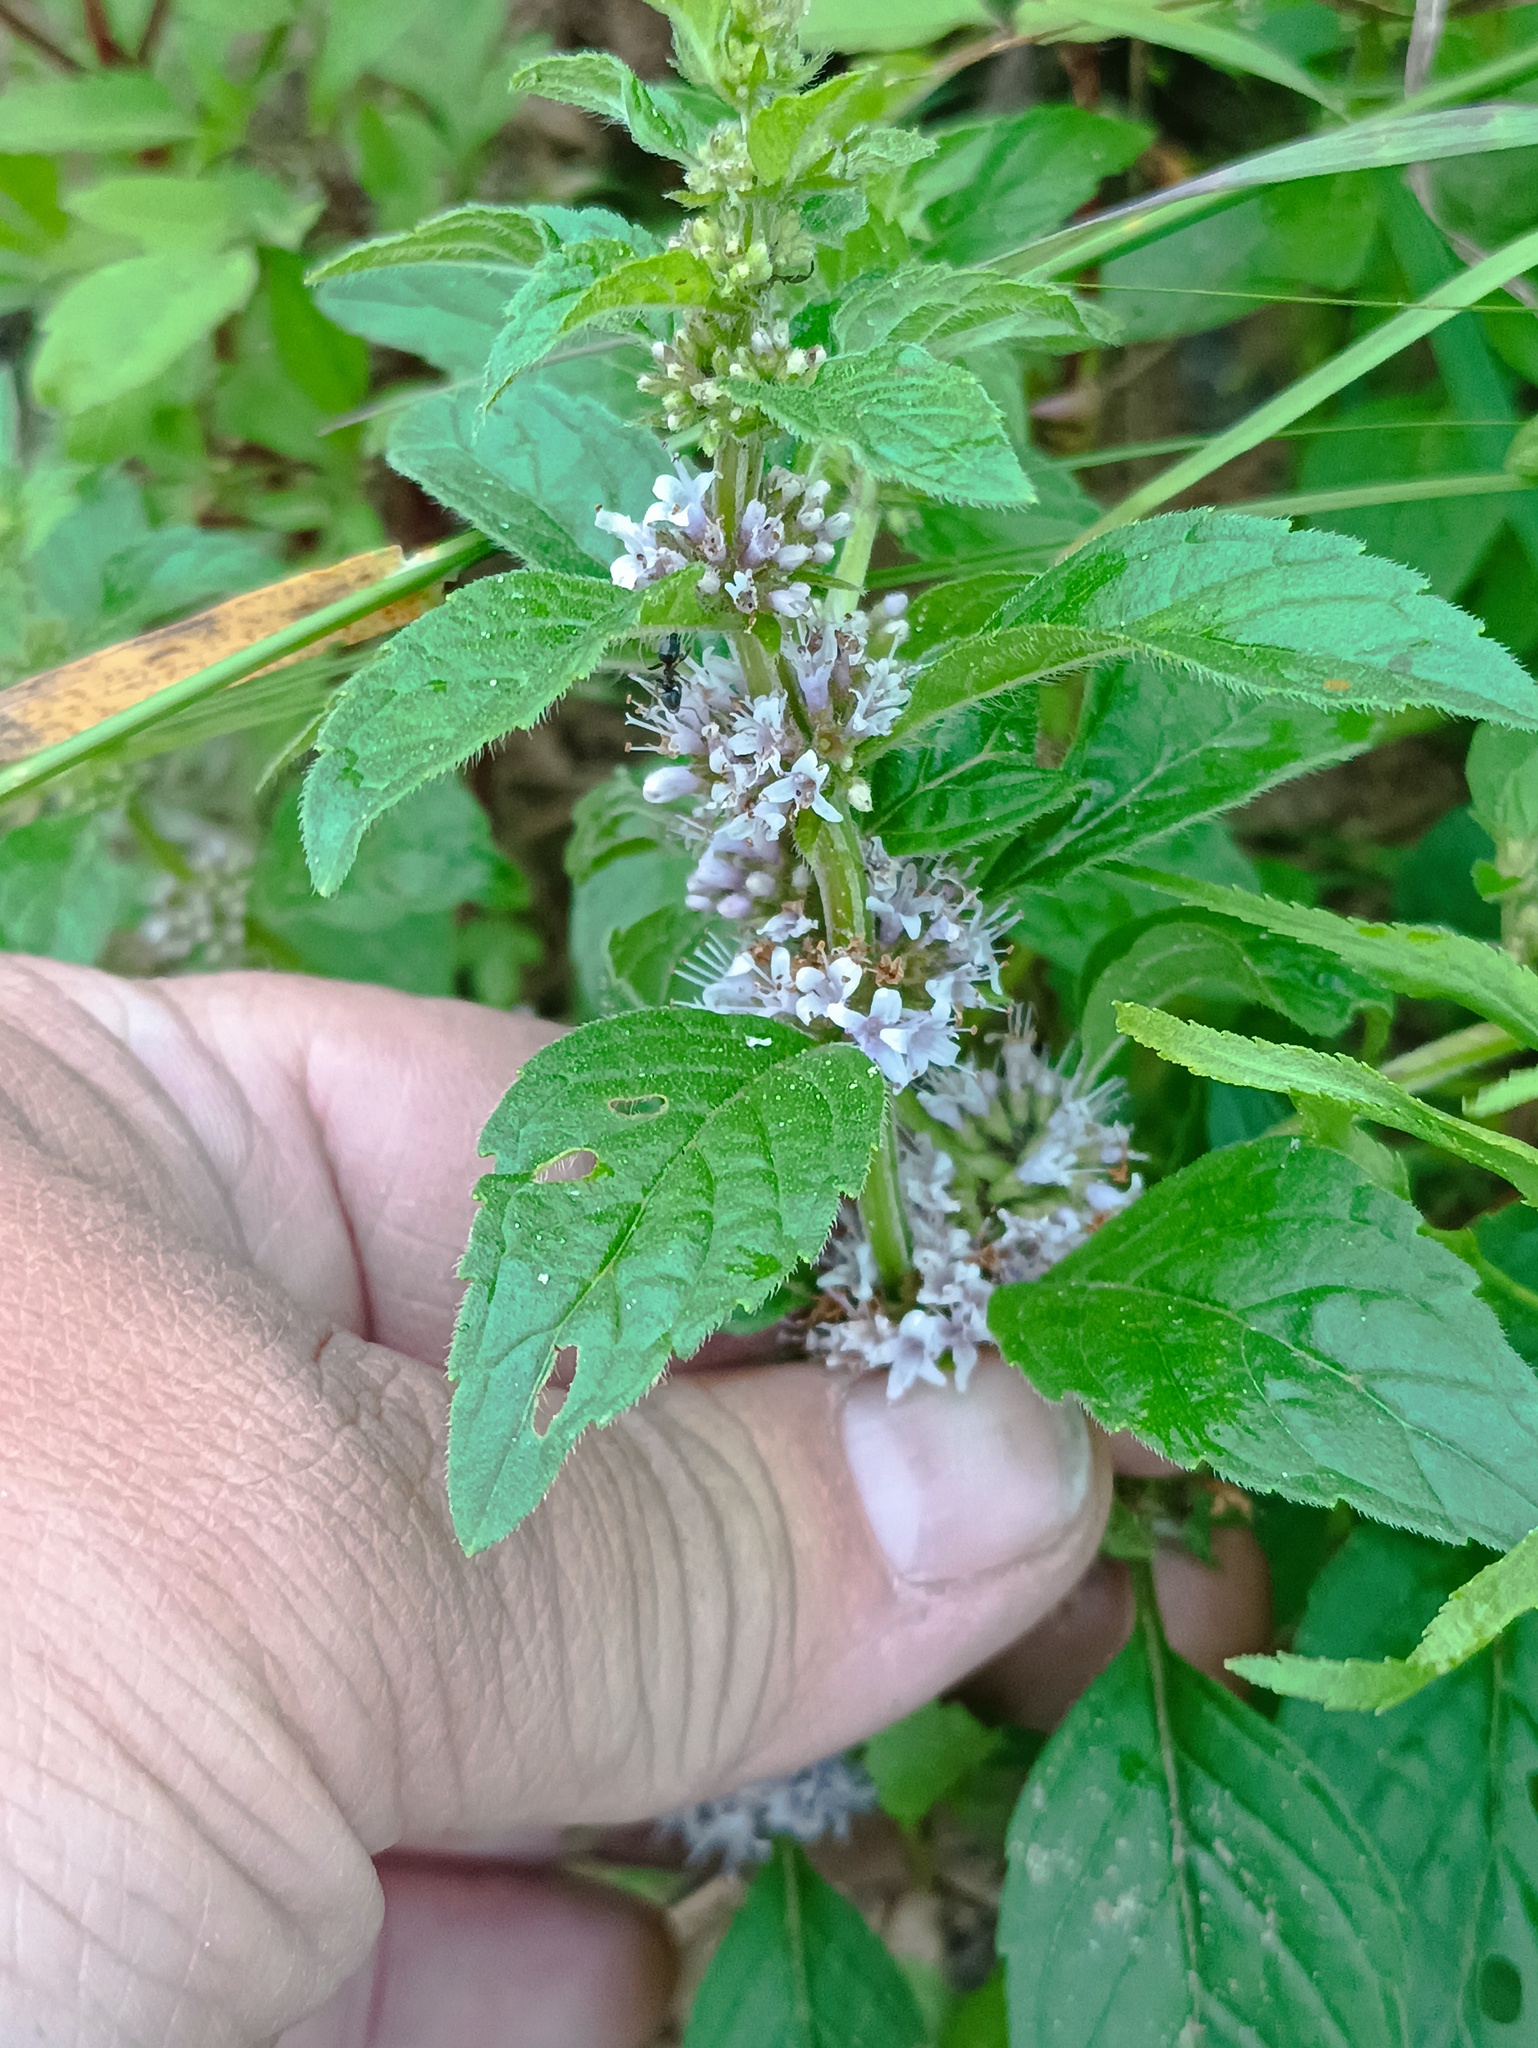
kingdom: Plantae
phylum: Tracheophyta
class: Magnoliopsida
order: Lamiales
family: Lamiaceae
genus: Mentha
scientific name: Mentha arvensis
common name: Corn mint
